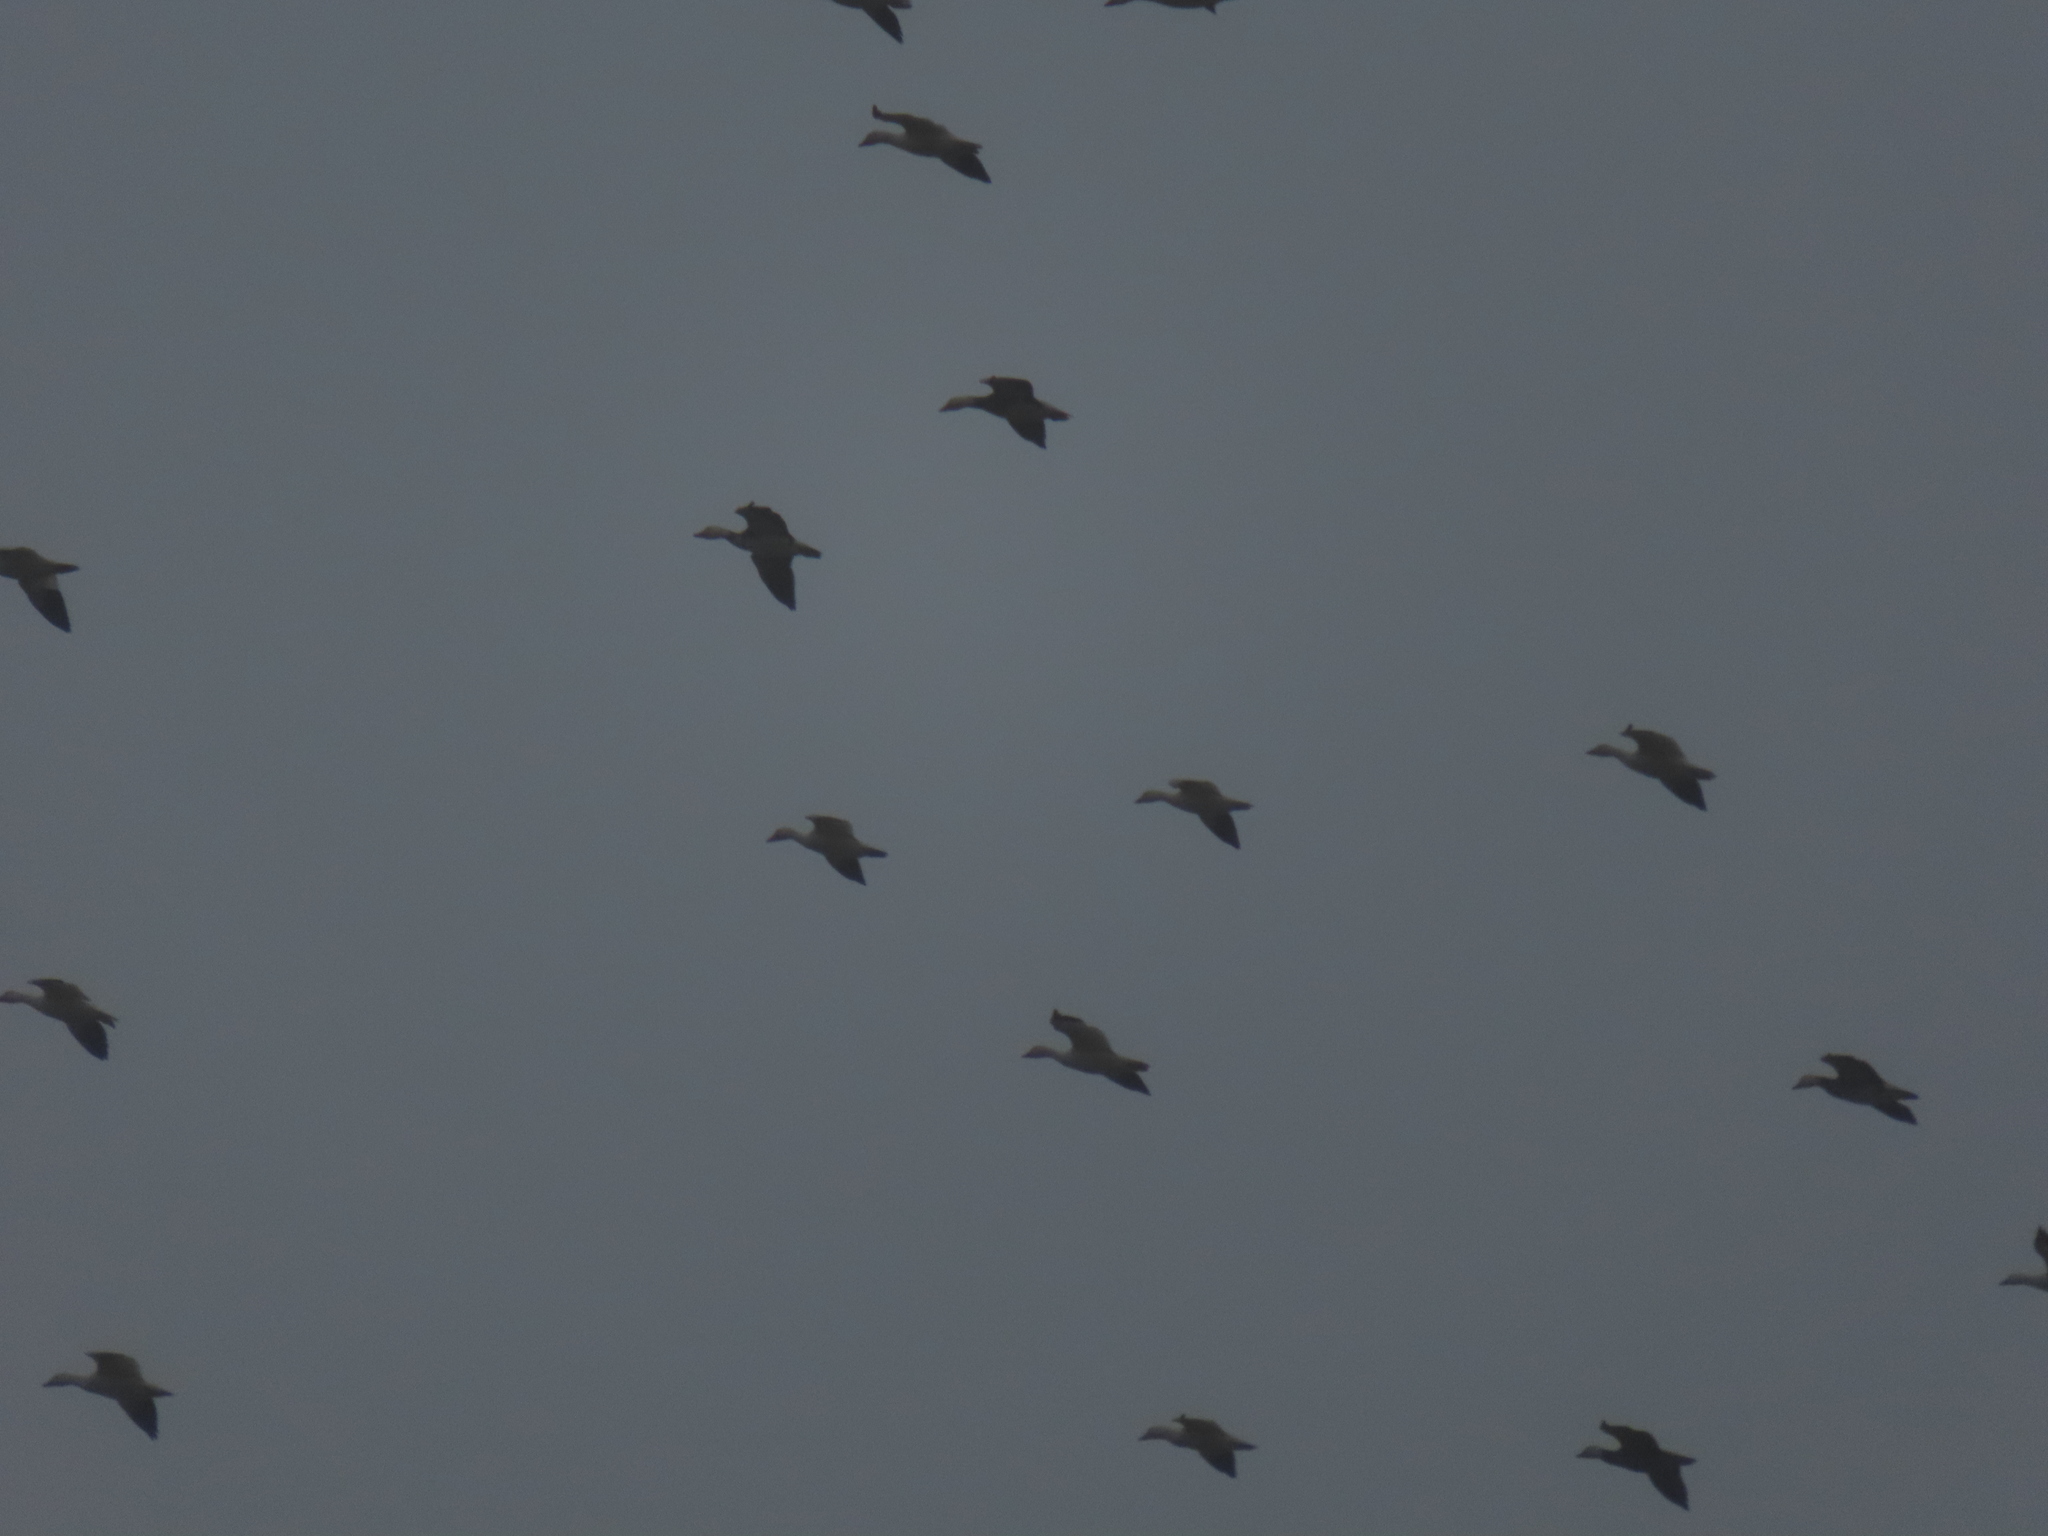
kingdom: Animalia
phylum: Chordata
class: Aves
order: Anseriformes
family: Anatidae
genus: Anser
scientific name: Anser caerulescens
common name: Snow goose
